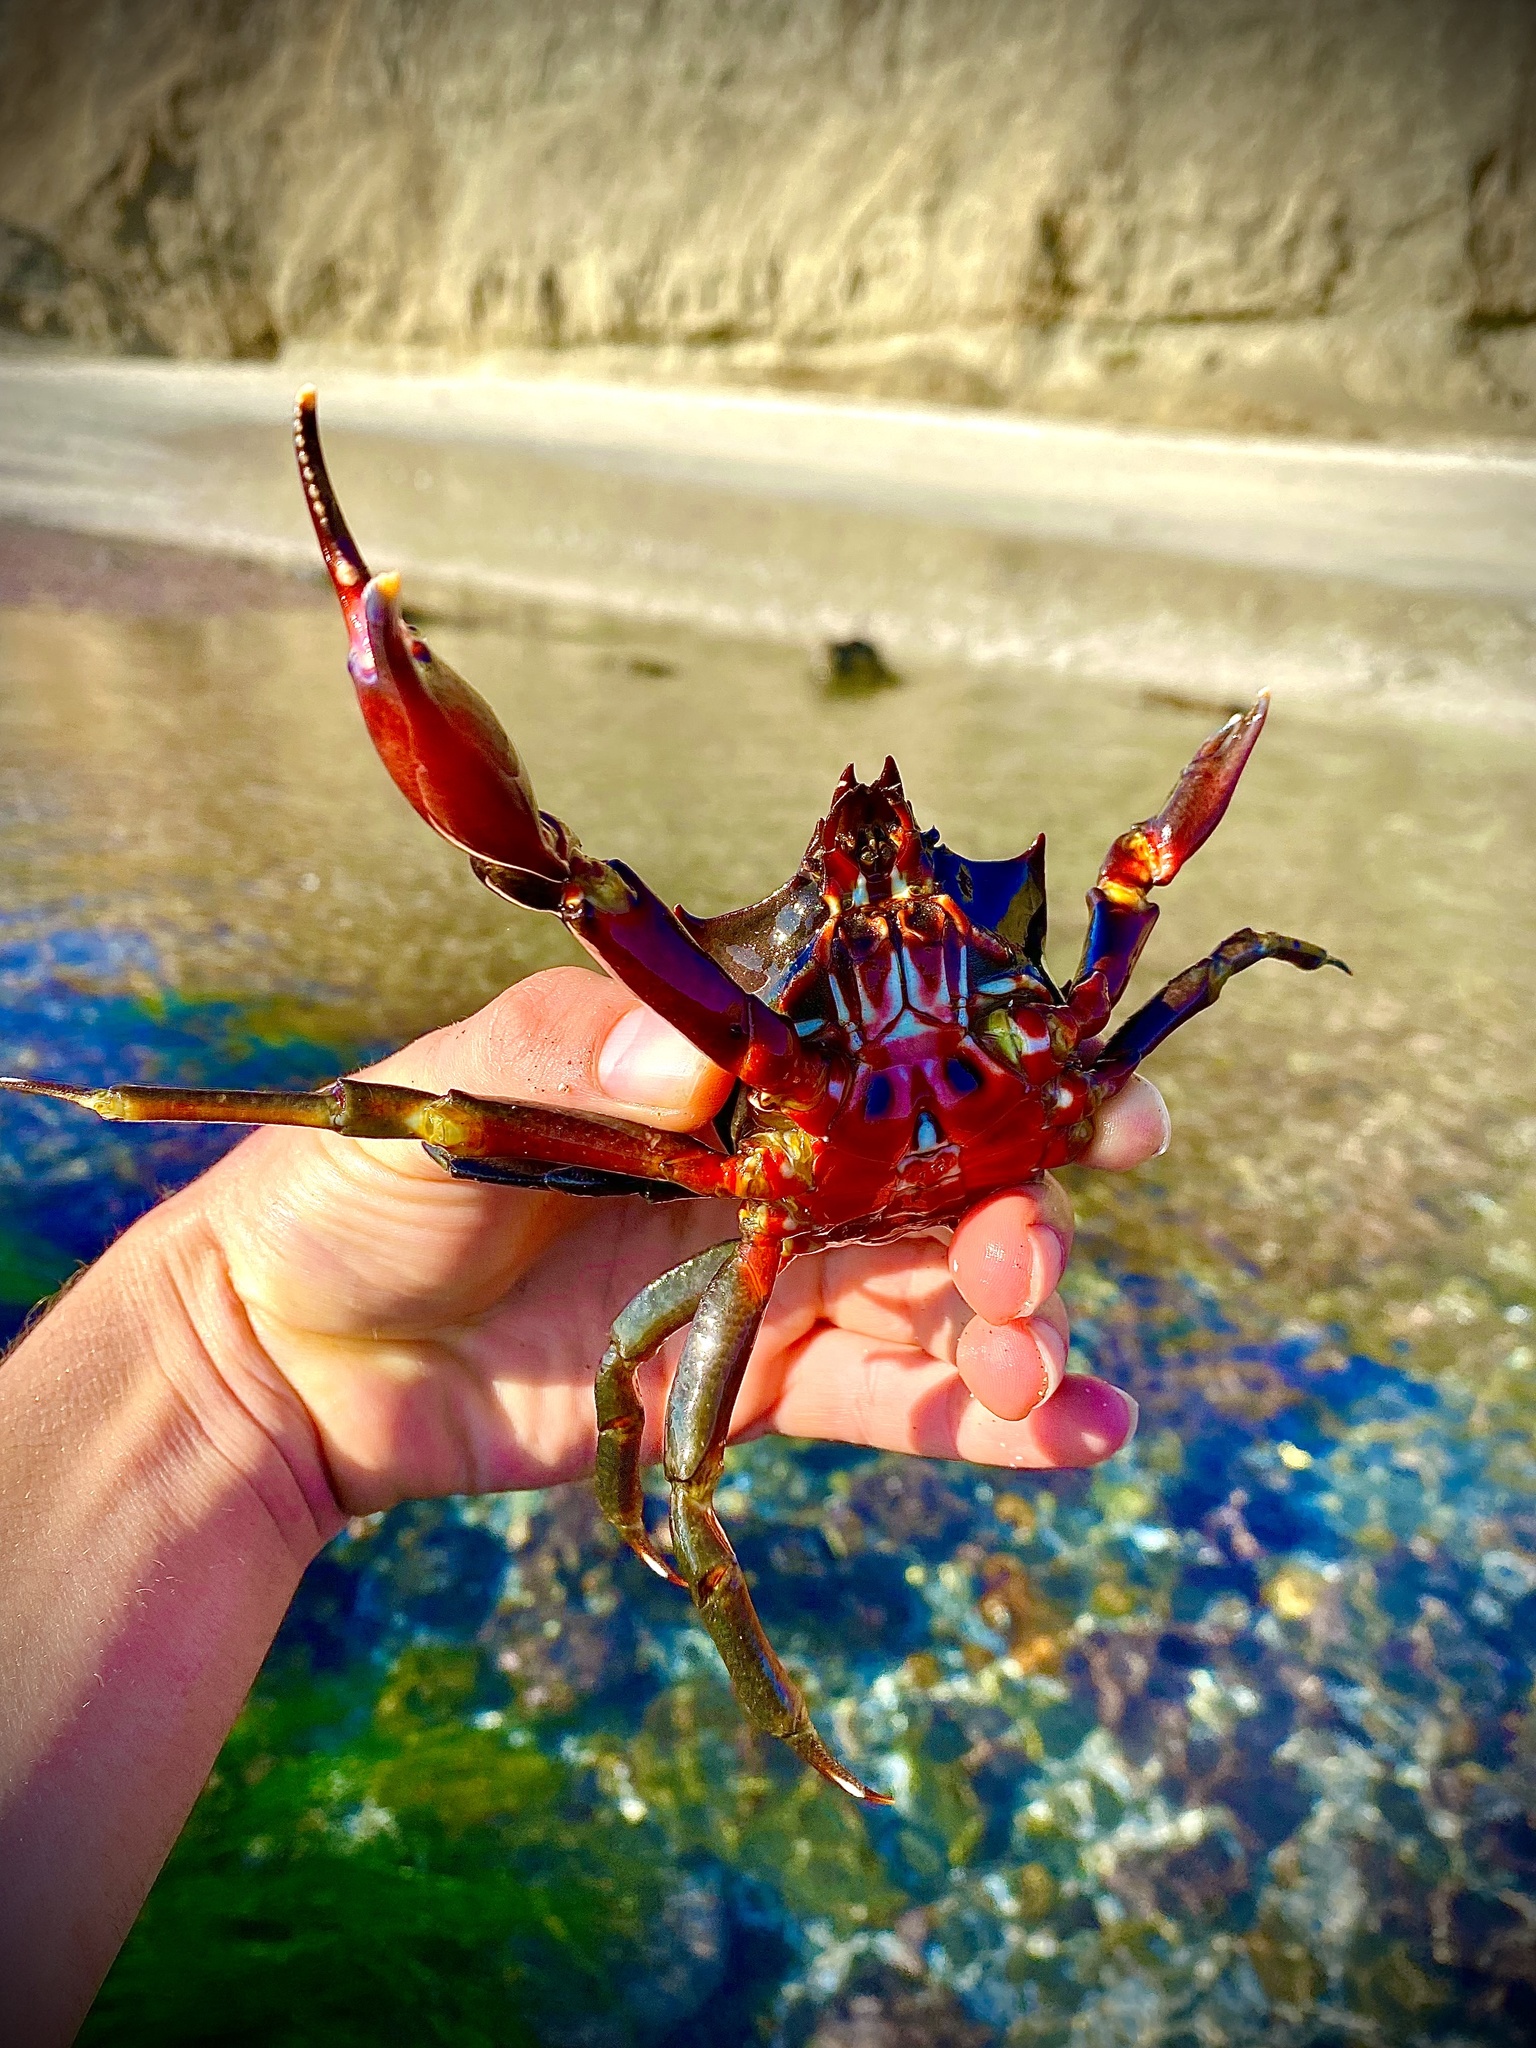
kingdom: Animalia
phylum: Arthropoda
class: Malacostraca
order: Decapoda
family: Epialtidae
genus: Pugettia
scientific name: Pugettia producta
